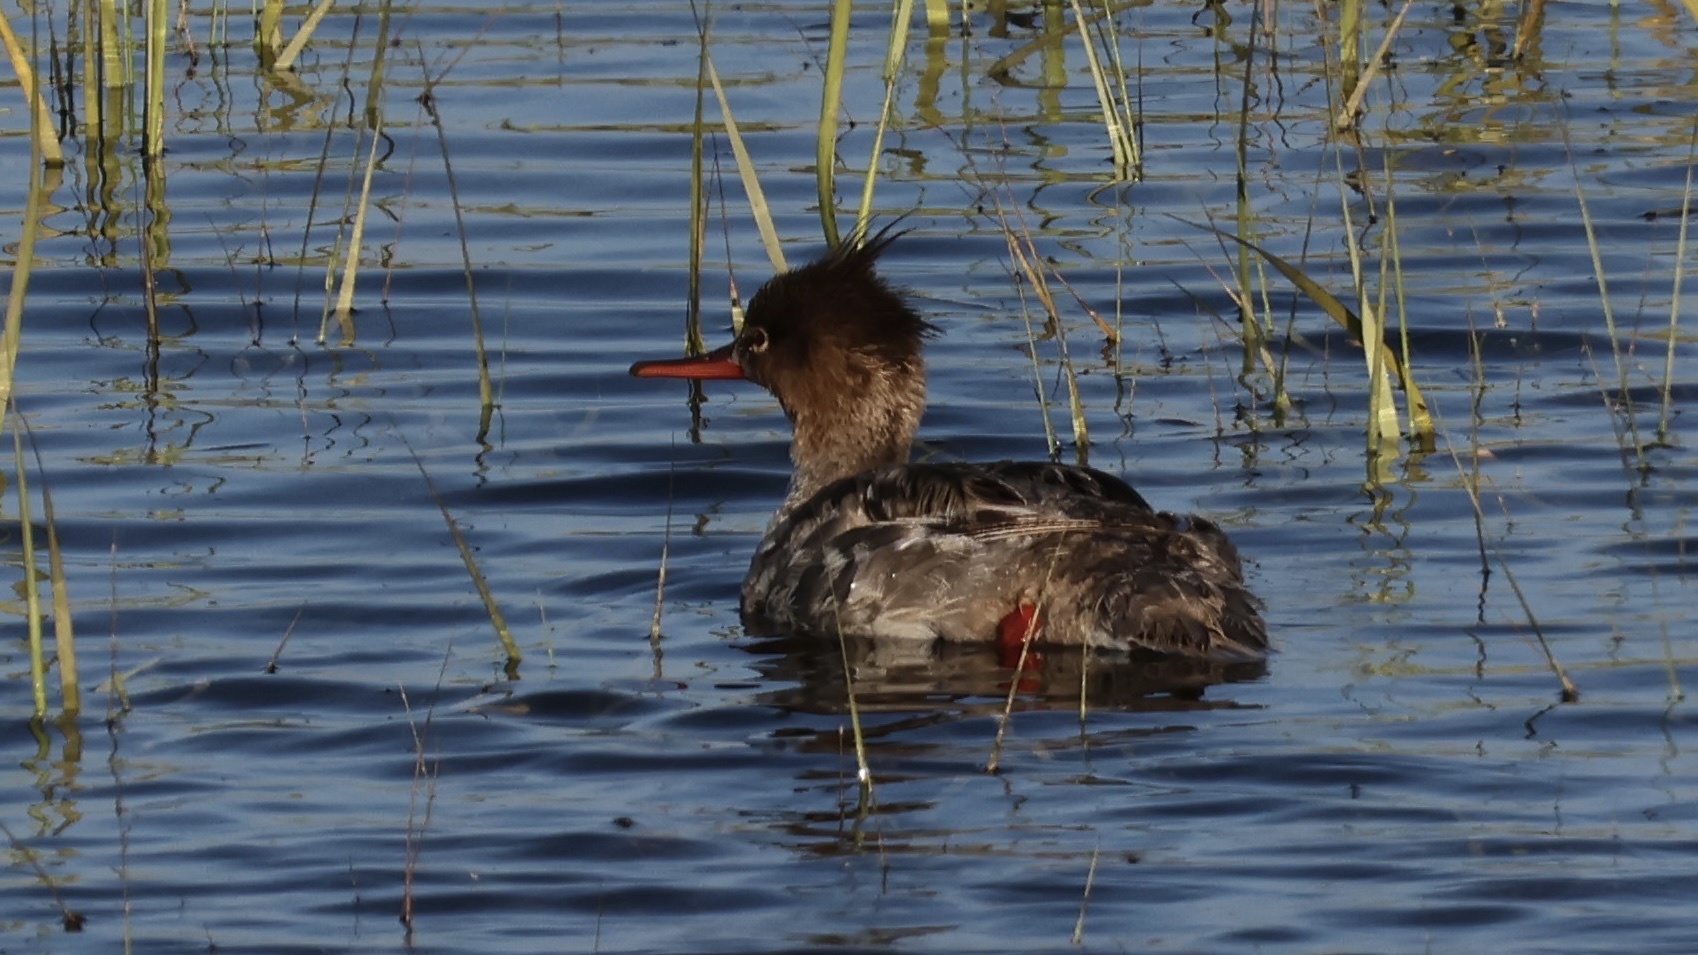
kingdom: Animalia
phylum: Chordata
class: Aves
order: Anseriformes
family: Anatidae
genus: Mergus
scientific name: Mergus serrator
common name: Red-breasted merganser
